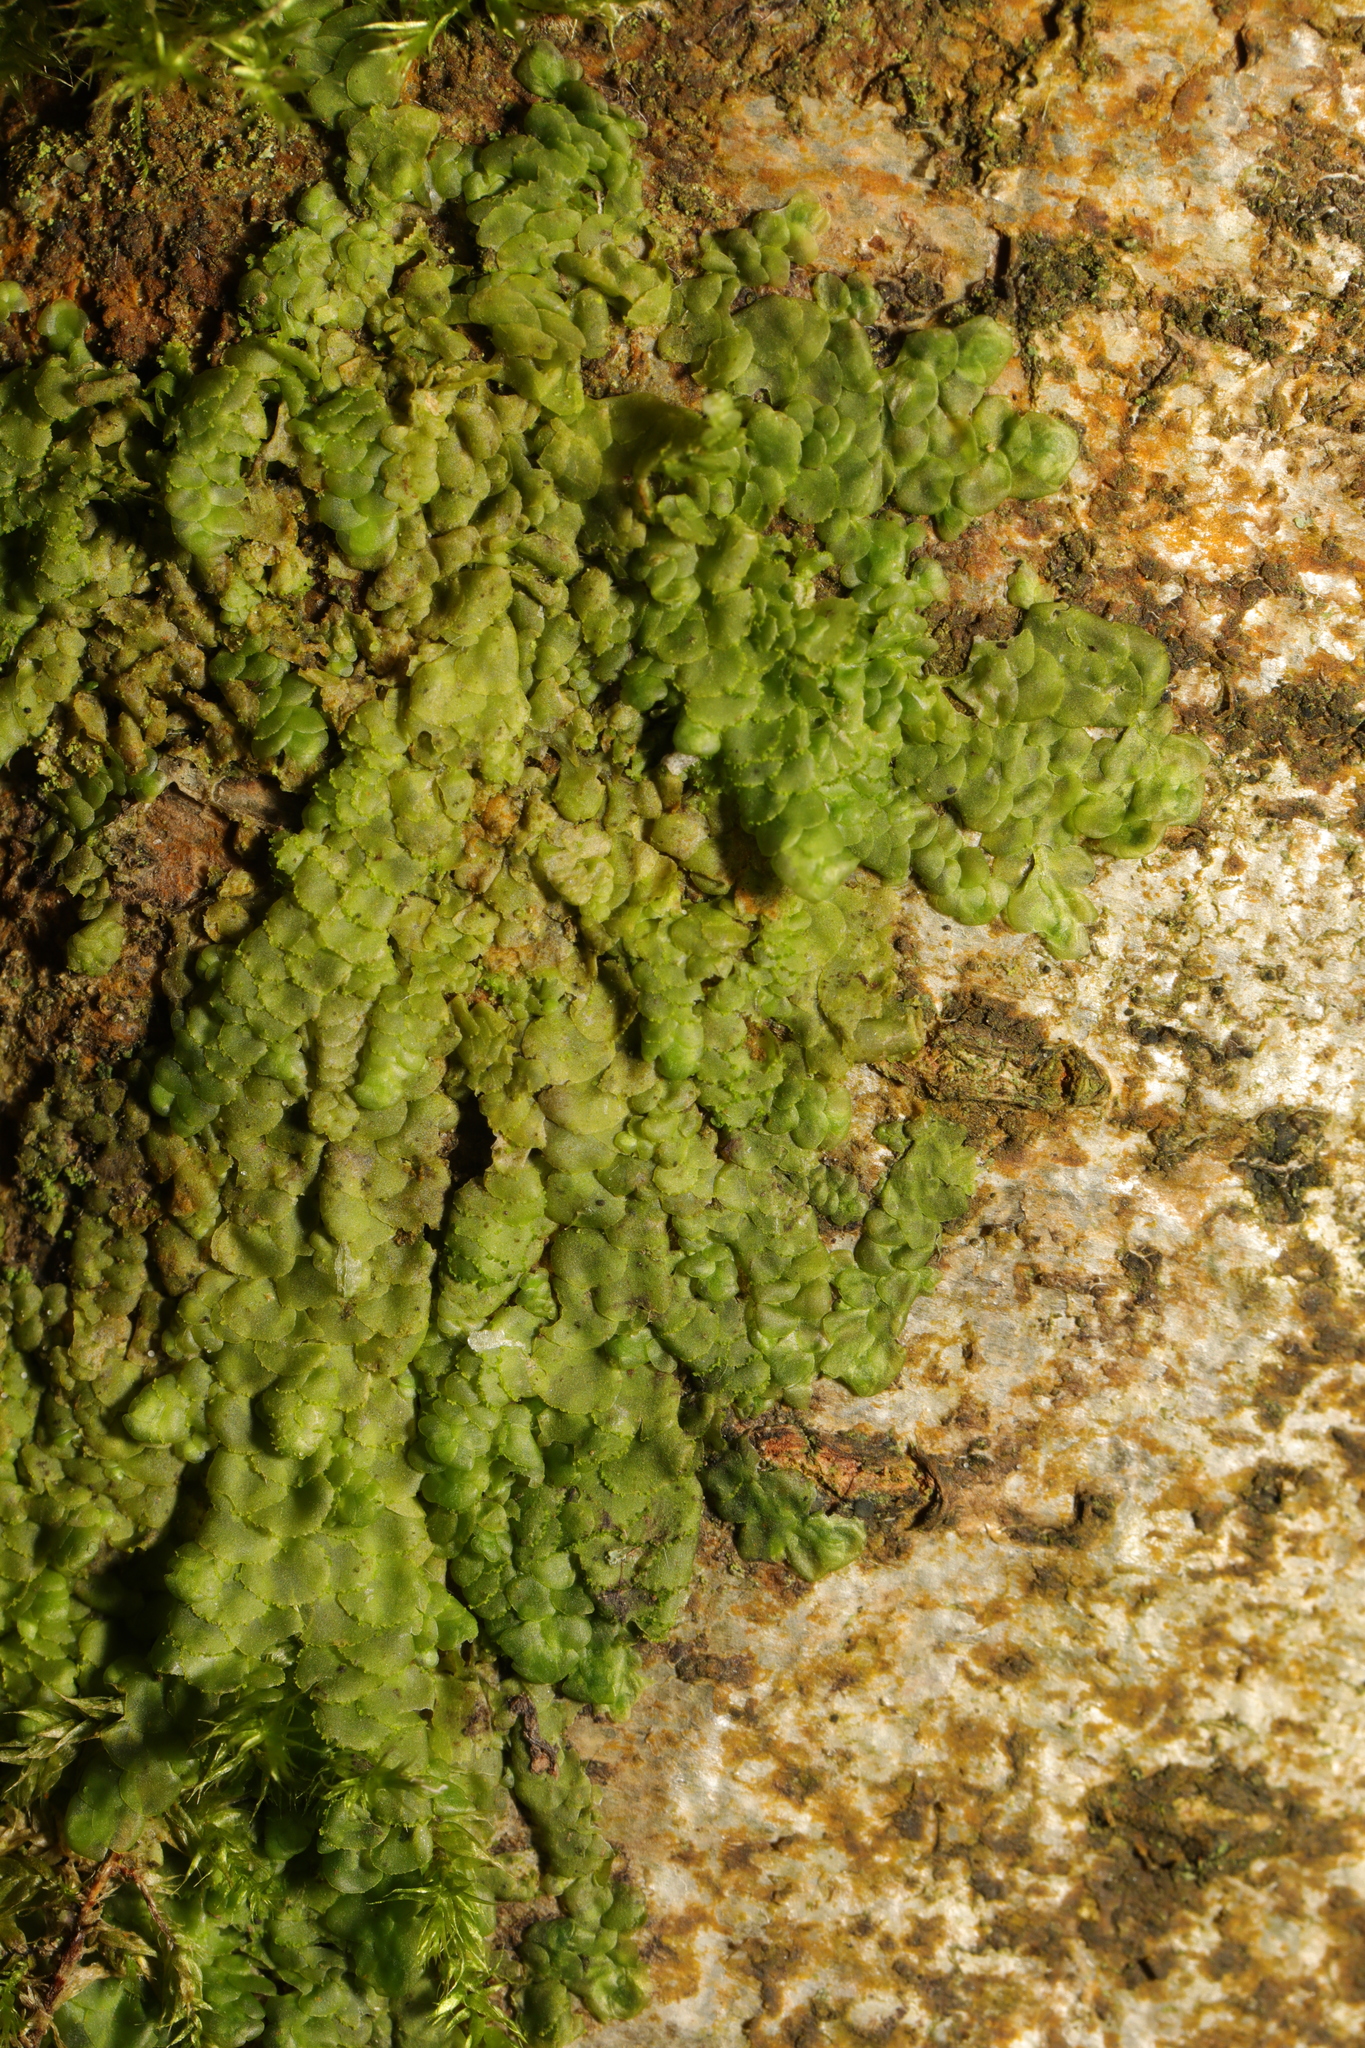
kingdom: Plantae
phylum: Marchantiophyta
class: Jungermanniopsida
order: Porellales
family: Radulaceae
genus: Radula
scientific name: Radula complanata
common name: Flat-leaved scalewort
